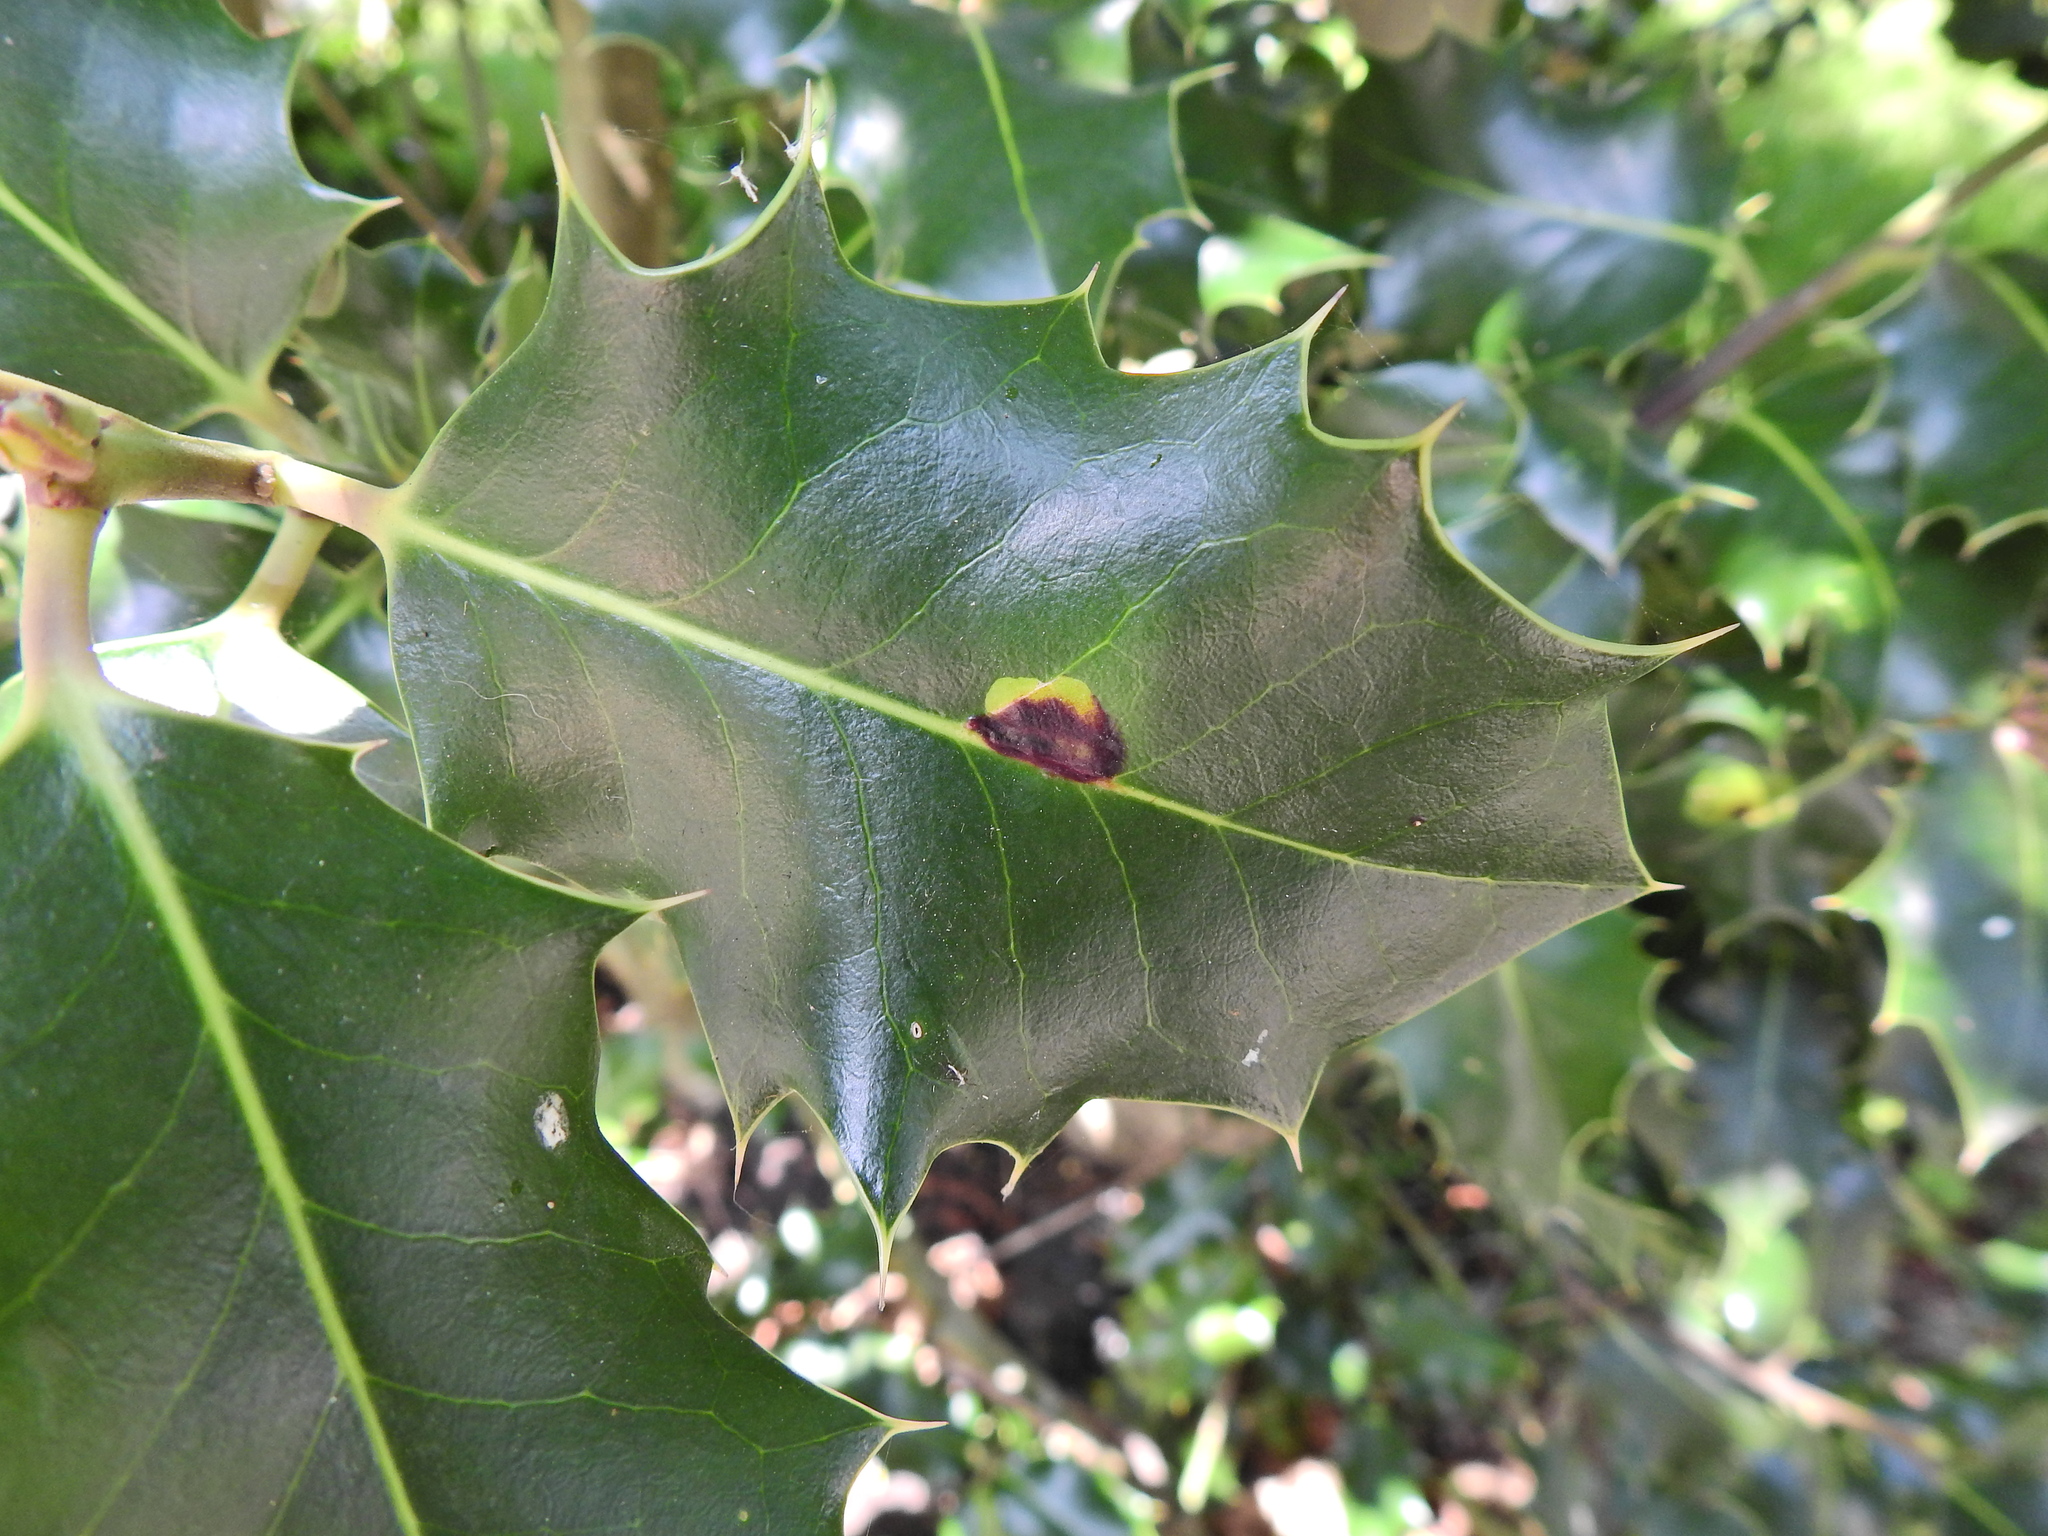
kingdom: Animalia
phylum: Arthropoda
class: Insecta
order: Diptera
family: Agromyzidae
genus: Phytomyza
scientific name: Phytomyza ilicis
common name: Holly leafminer
